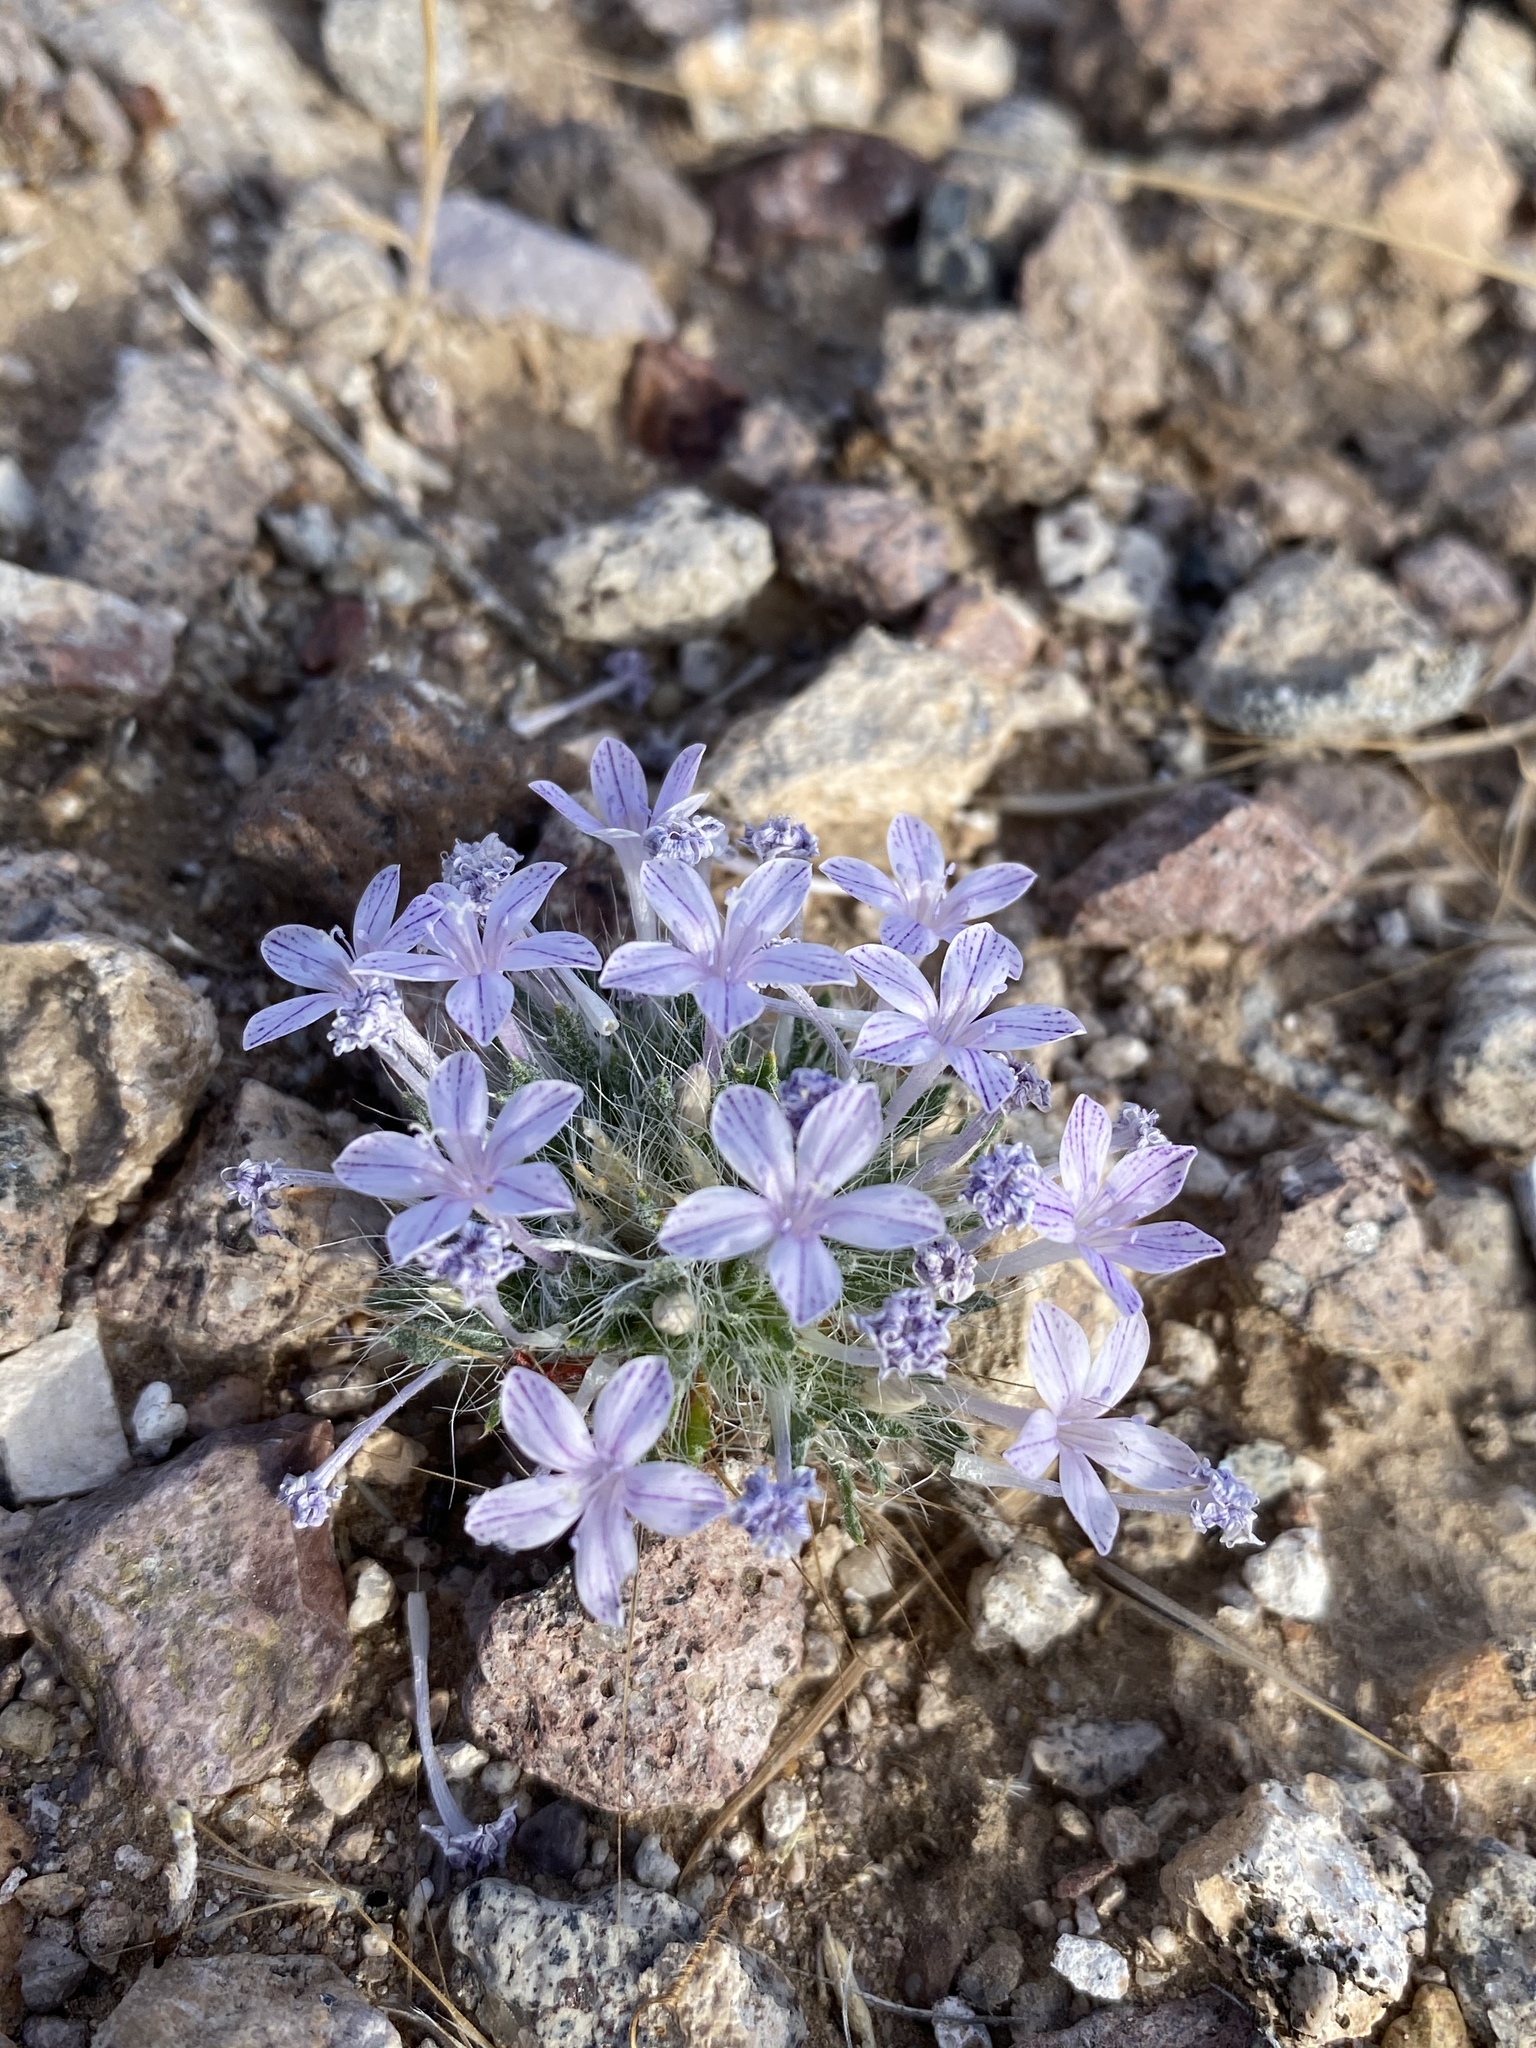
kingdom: Plantae
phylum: Tracheophyta
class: Magnoliopsida
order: Ericales
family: Polemoniaceae
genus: Langloisia
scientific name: Langloisia setosissima
